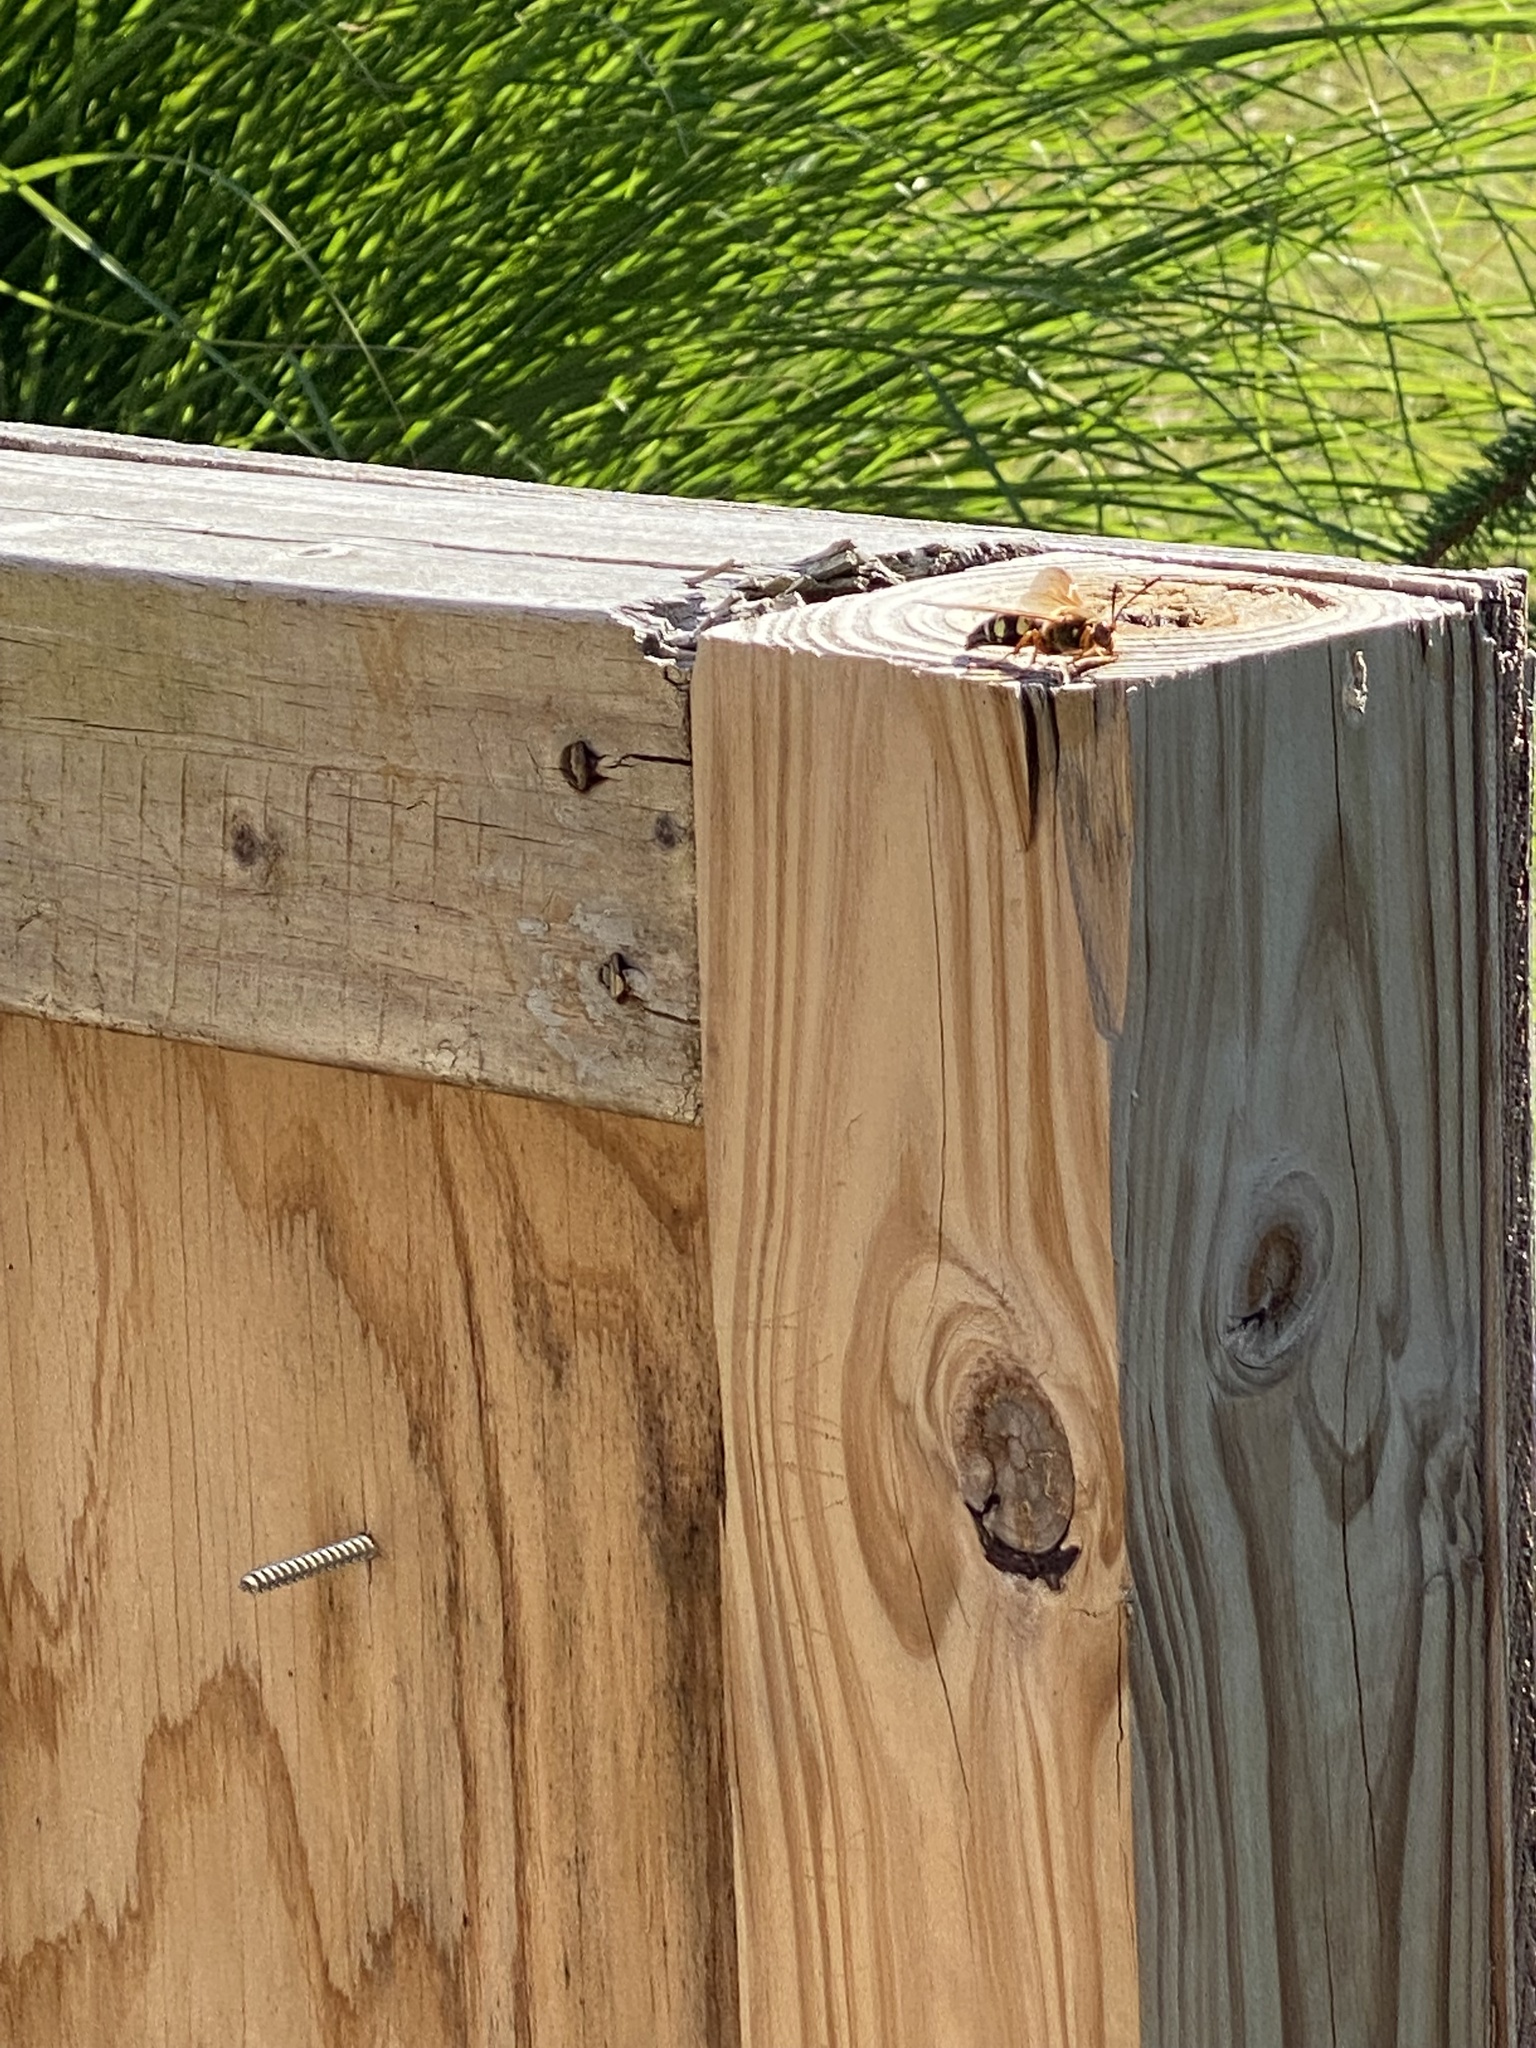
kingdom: Animalia
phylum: Arthropoda
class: Insecta
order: Hymenoptera
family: Crabronidae
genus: Sphecius
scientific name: Sphecius speciosus
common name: Cicada killer
